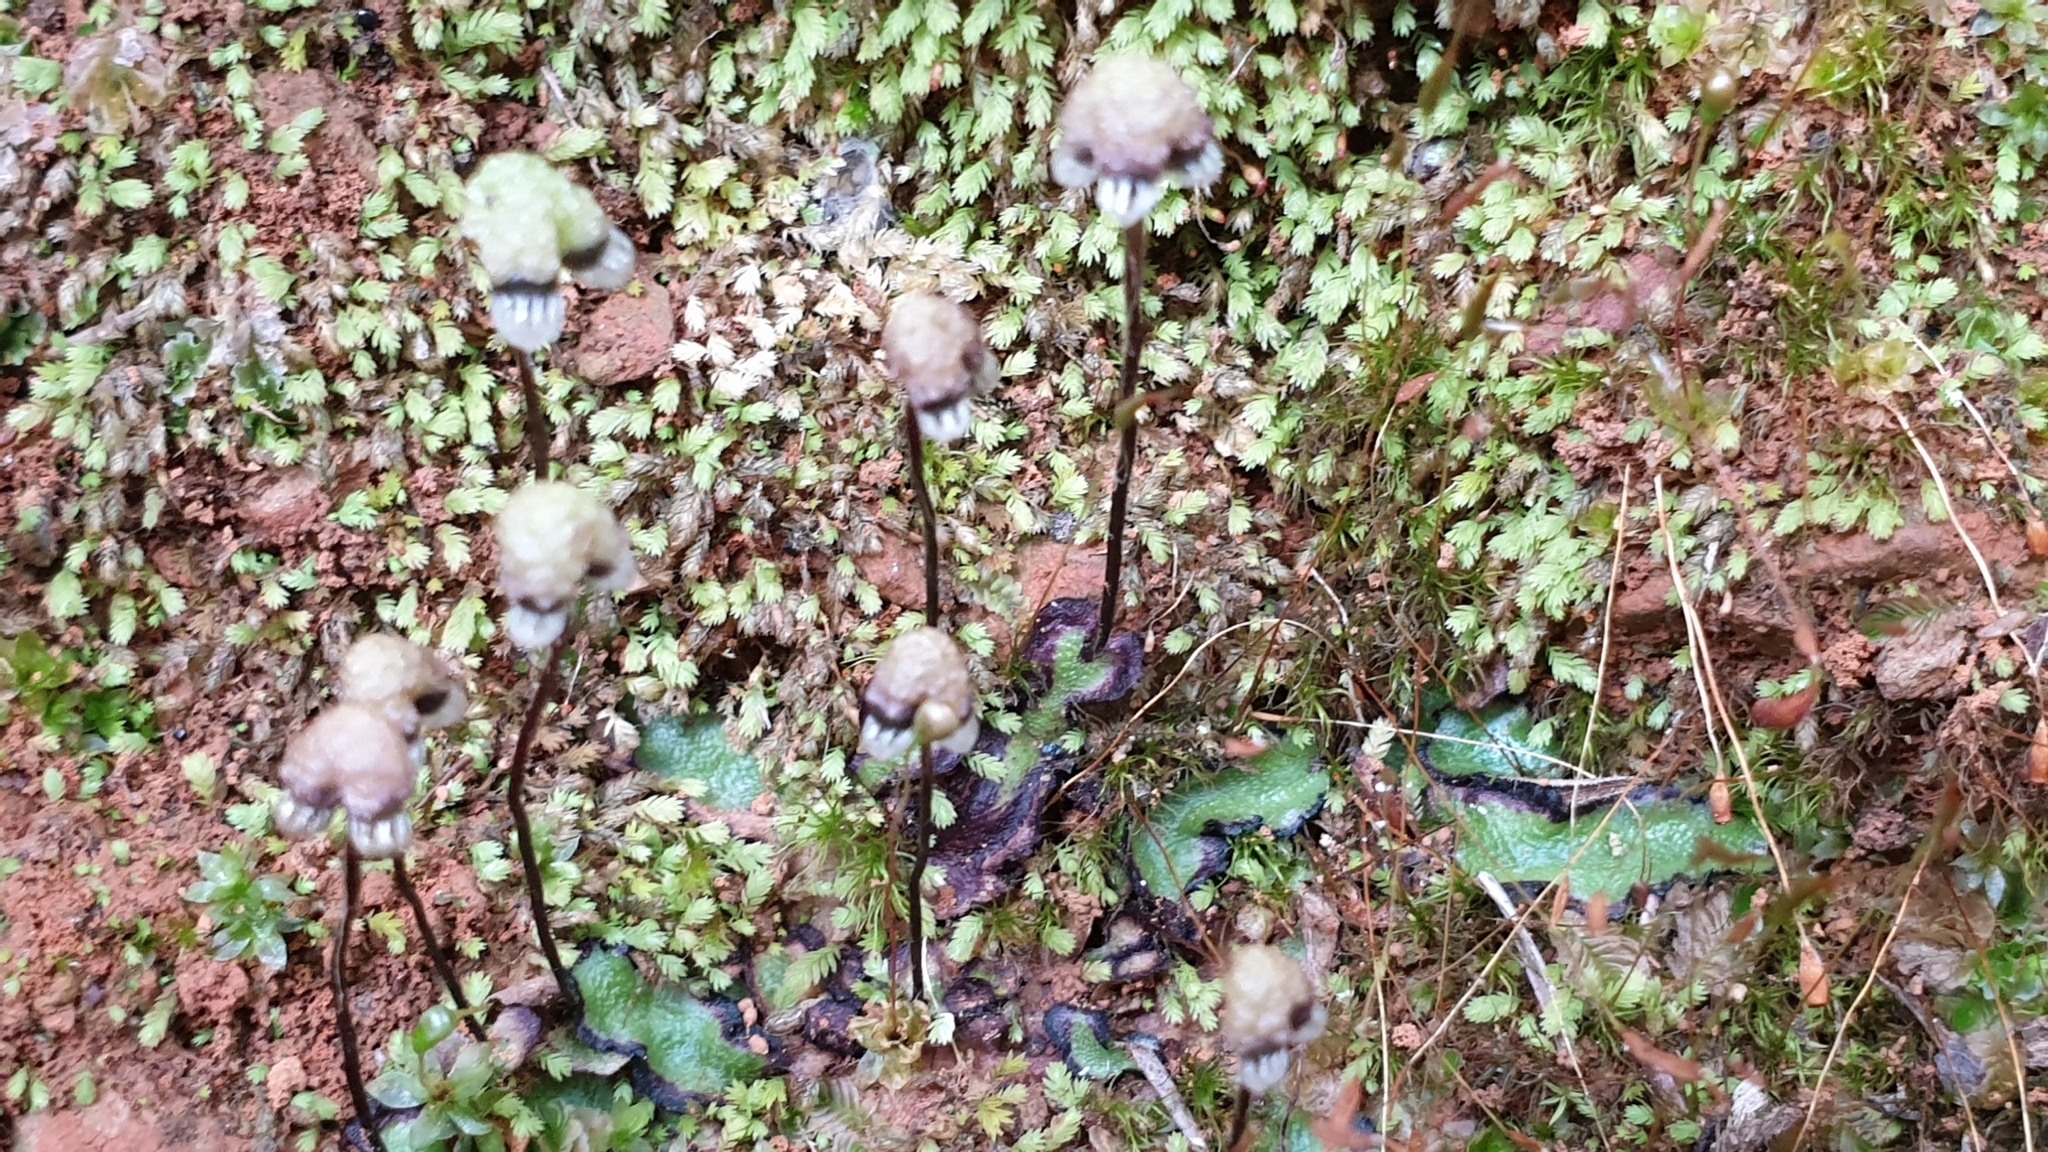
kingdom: Plantae
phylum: Marchantiophyta
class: Marchantiopsida
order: Marchantiales
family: Aytoniaceae
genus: Asterella
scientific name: Asterella drummondii
